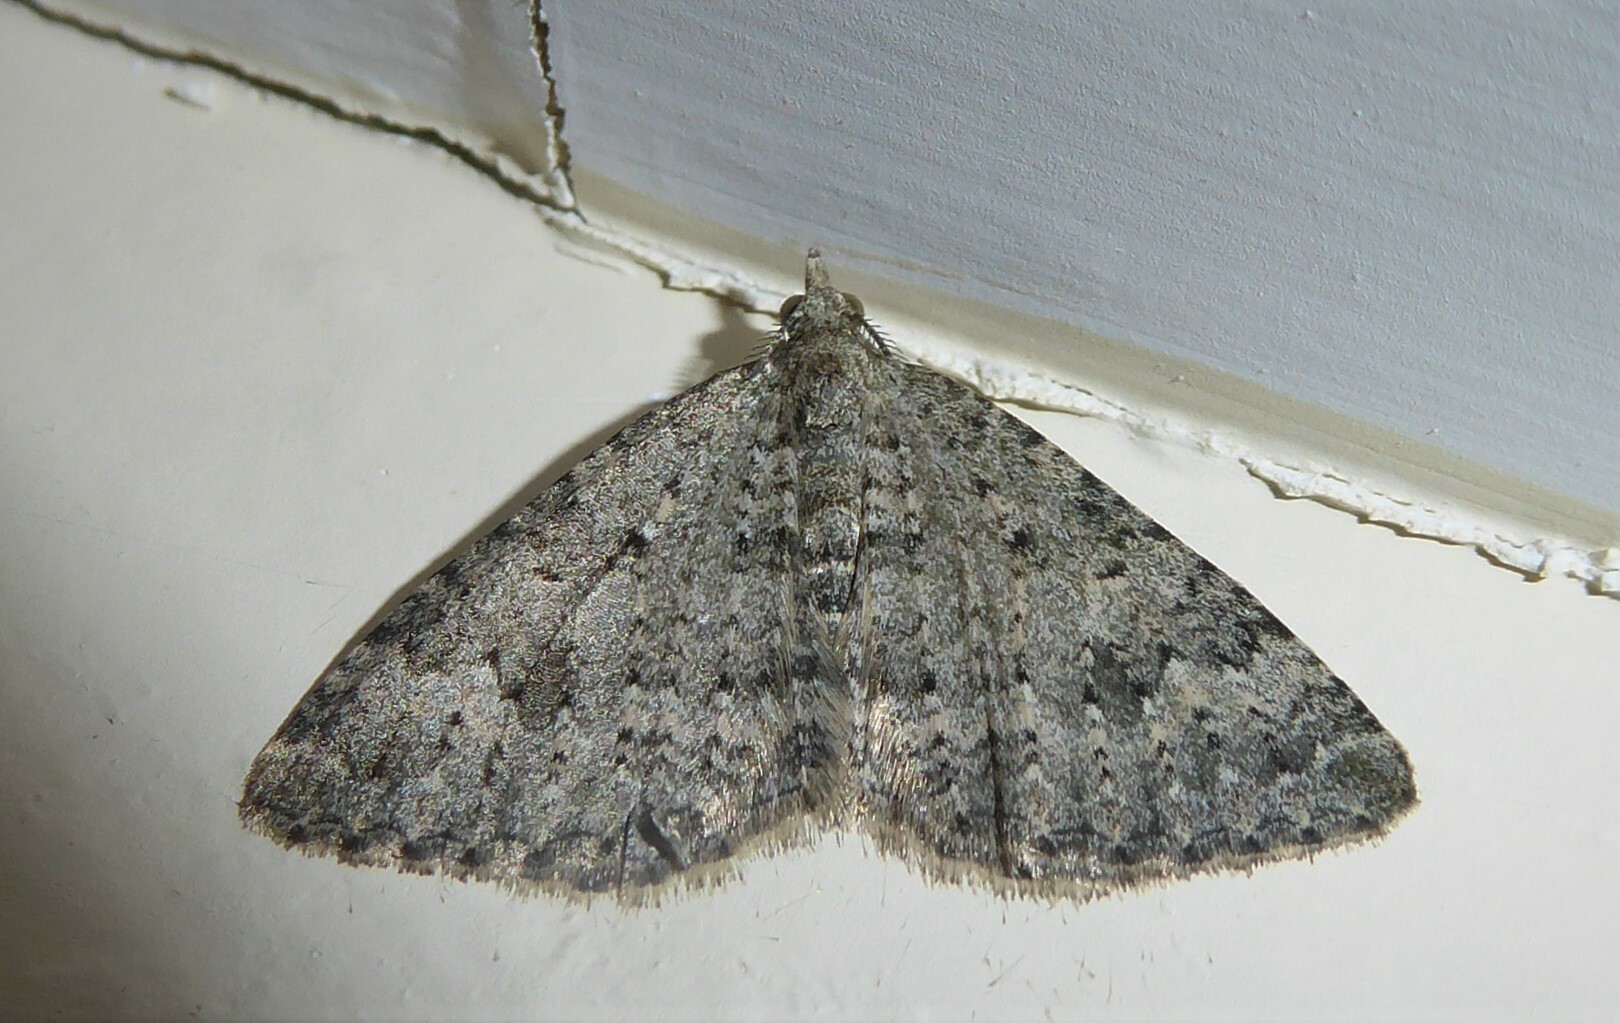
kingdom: Animalia
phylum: Arthropoda
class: Insecta
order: Lepidoptera
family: Geometridae
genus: Helastia
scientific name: Helastia corcularia
